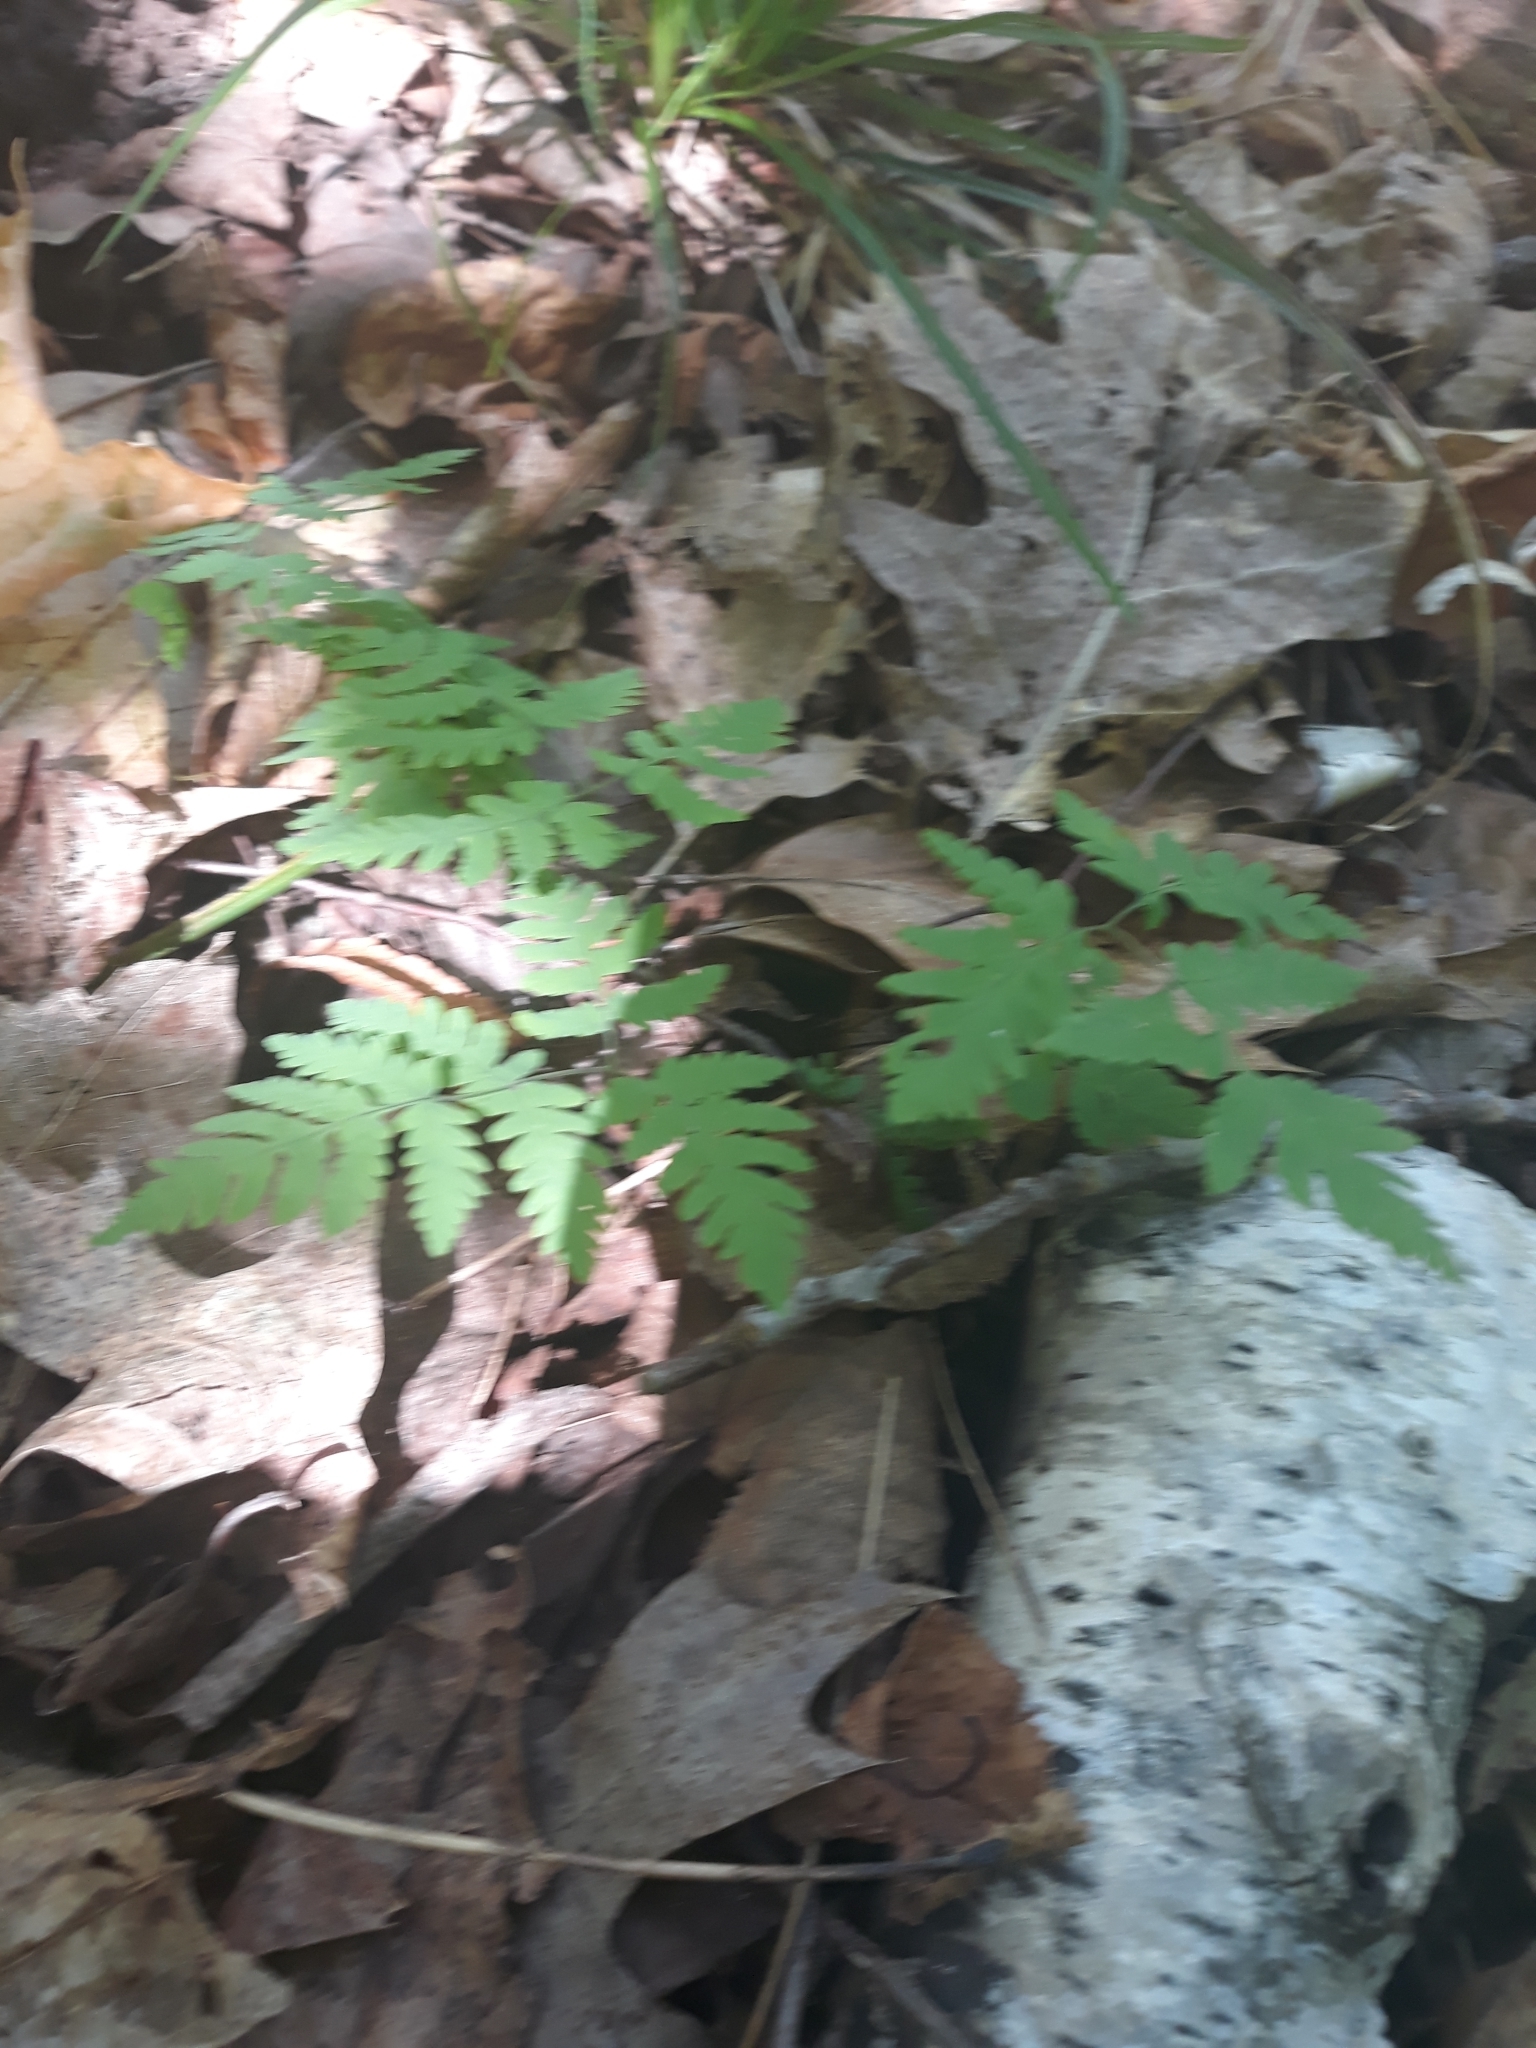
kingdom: Plantae
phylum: Tracheophyta
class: Polypodiopsida
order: Polypodiales
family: Cystopteridaceae
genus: Gymnocarpium
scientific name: Gymnocarpium dryopteris
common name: Oak fern
